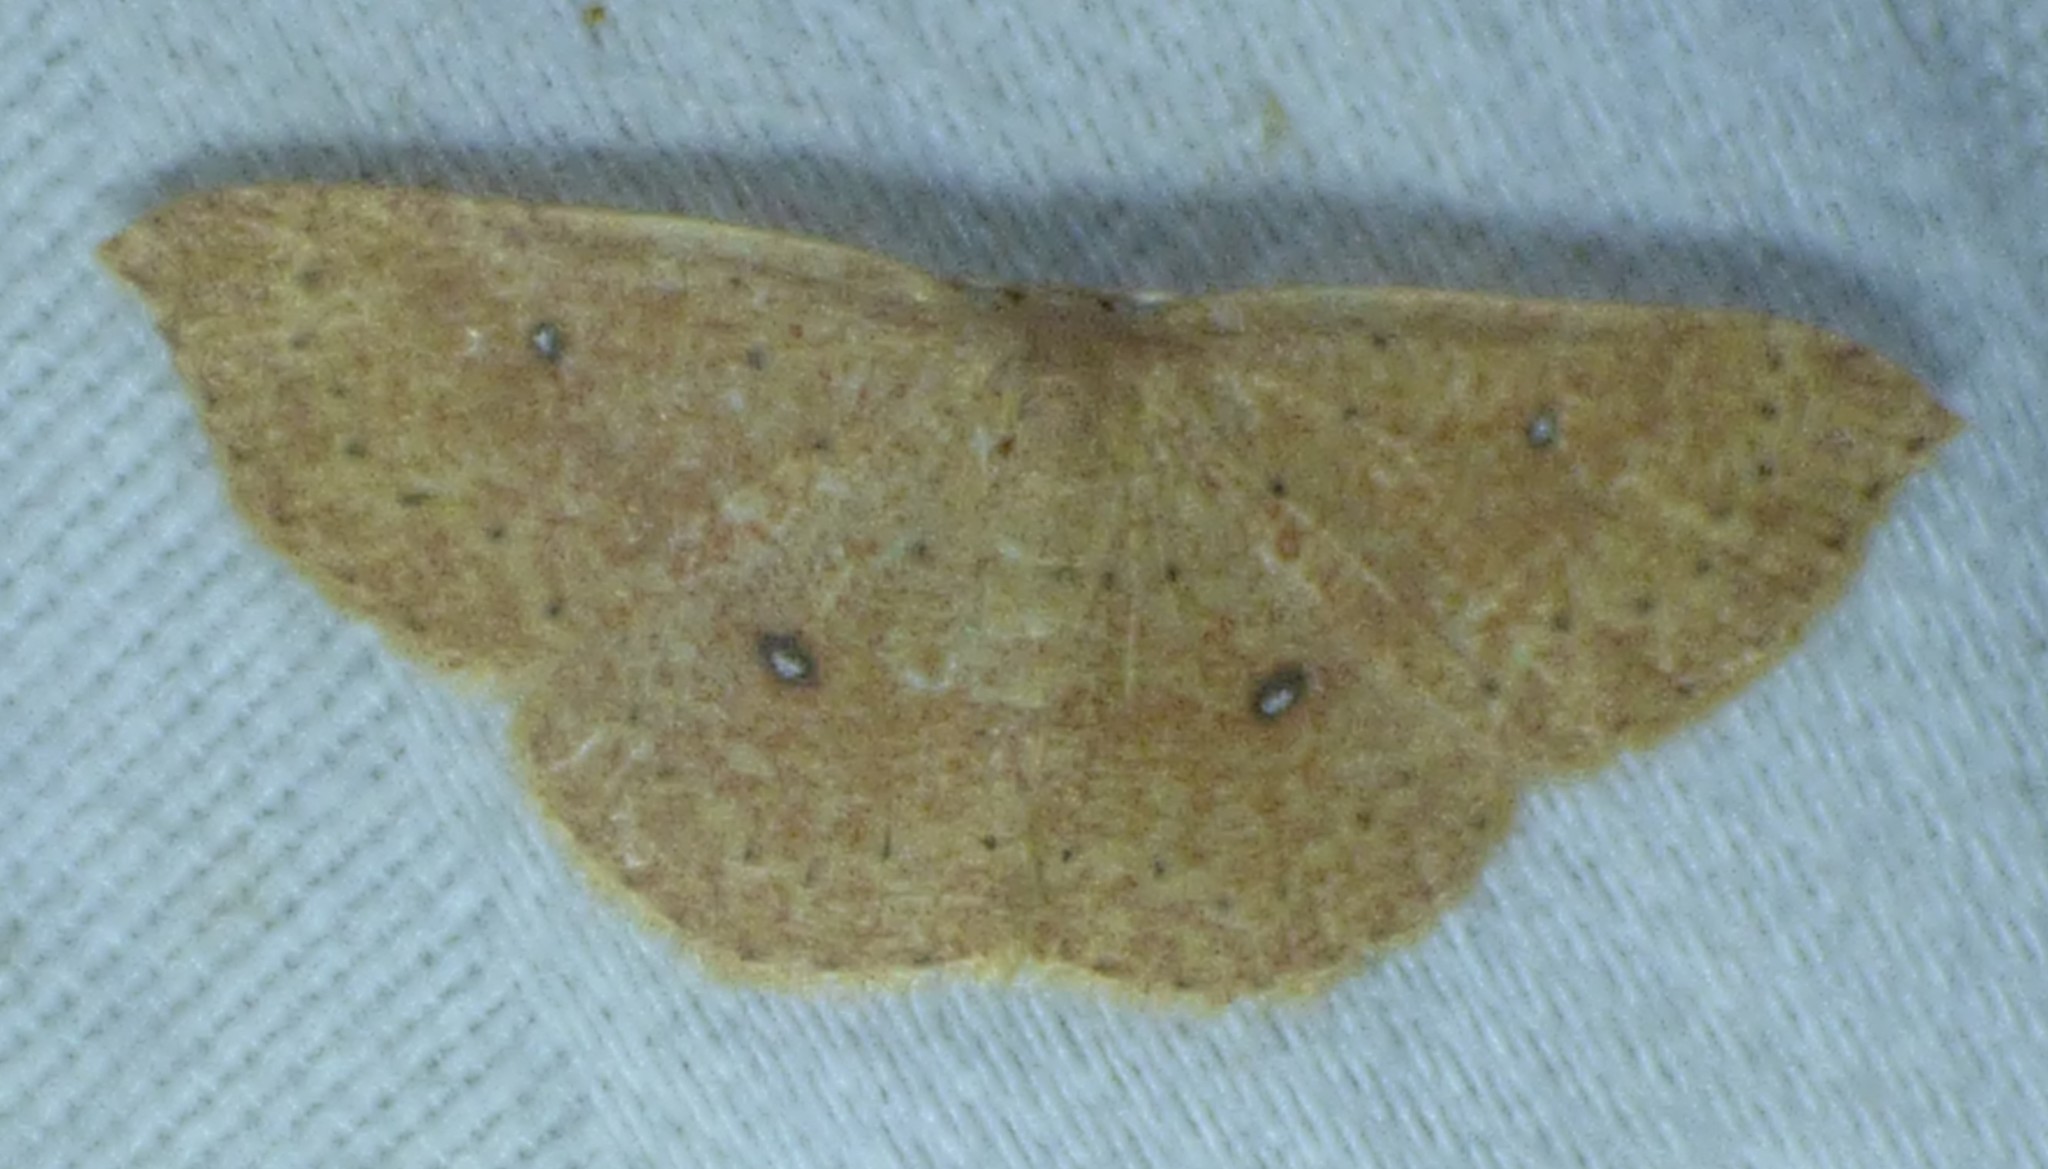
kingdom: Animalia
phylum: Arthropoda
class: Insecta
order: Lepidoptera
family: Geometridae
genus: Cyclophora
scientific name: Cyclophora packardi
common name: Packard's wave
